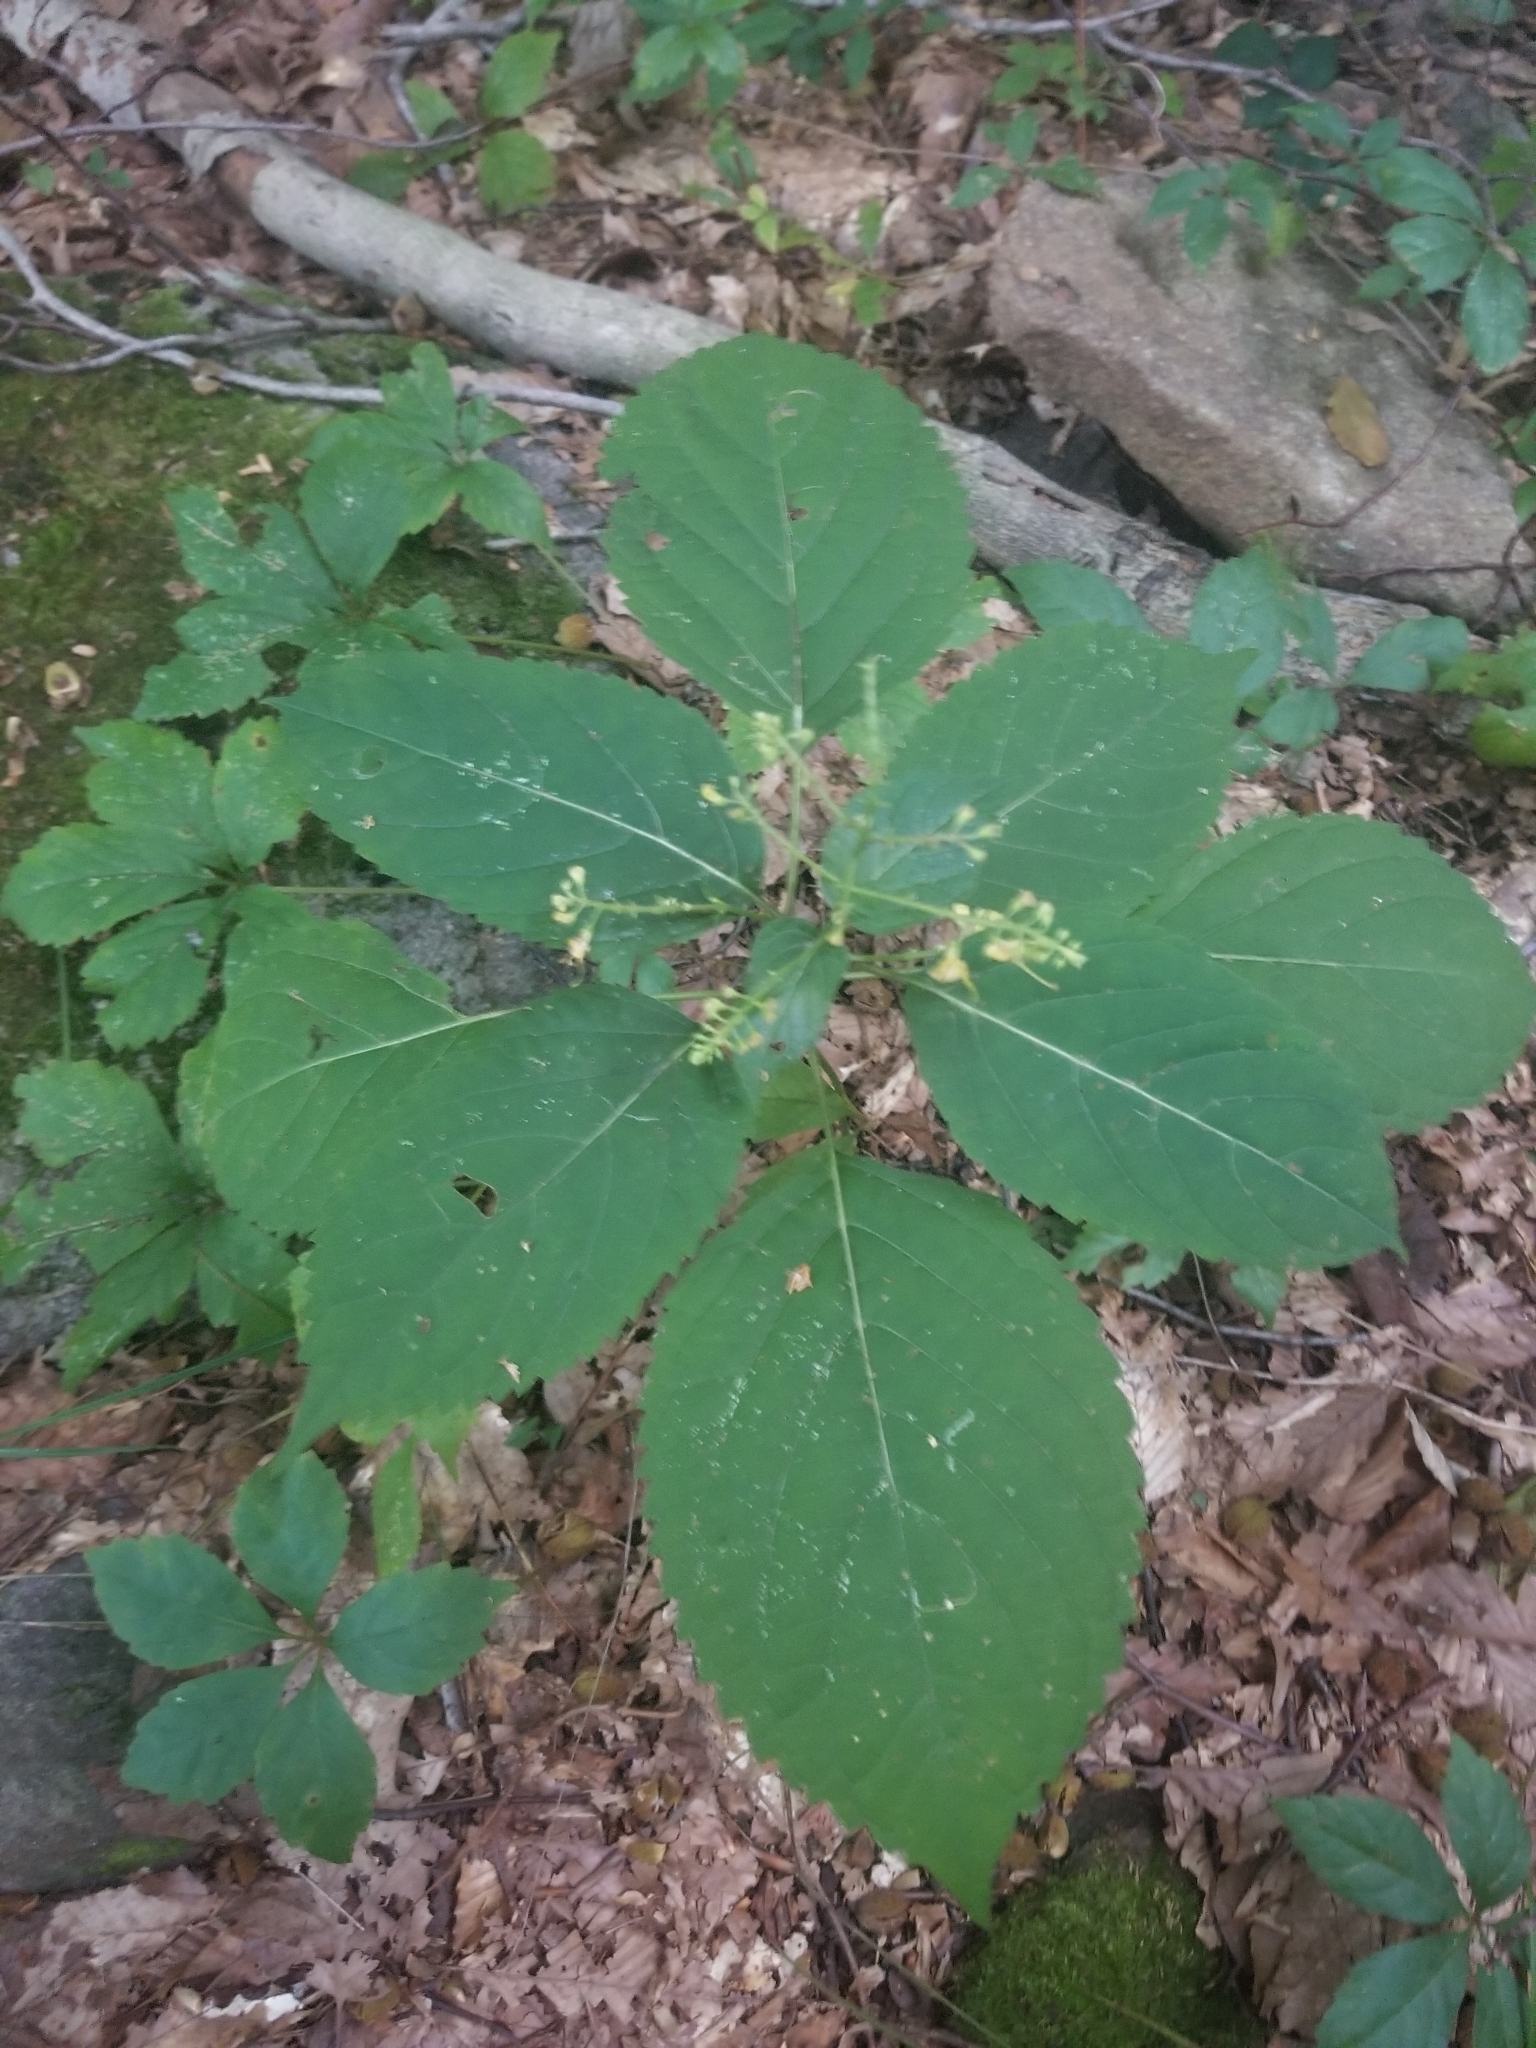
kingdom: Plantae
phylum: Tracheophyta
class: Magnoliopsida
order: Lamiales
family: Lamiaceae
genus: Collinsonia
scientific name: Collinsonia canadensis
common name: Northern horsebalm
